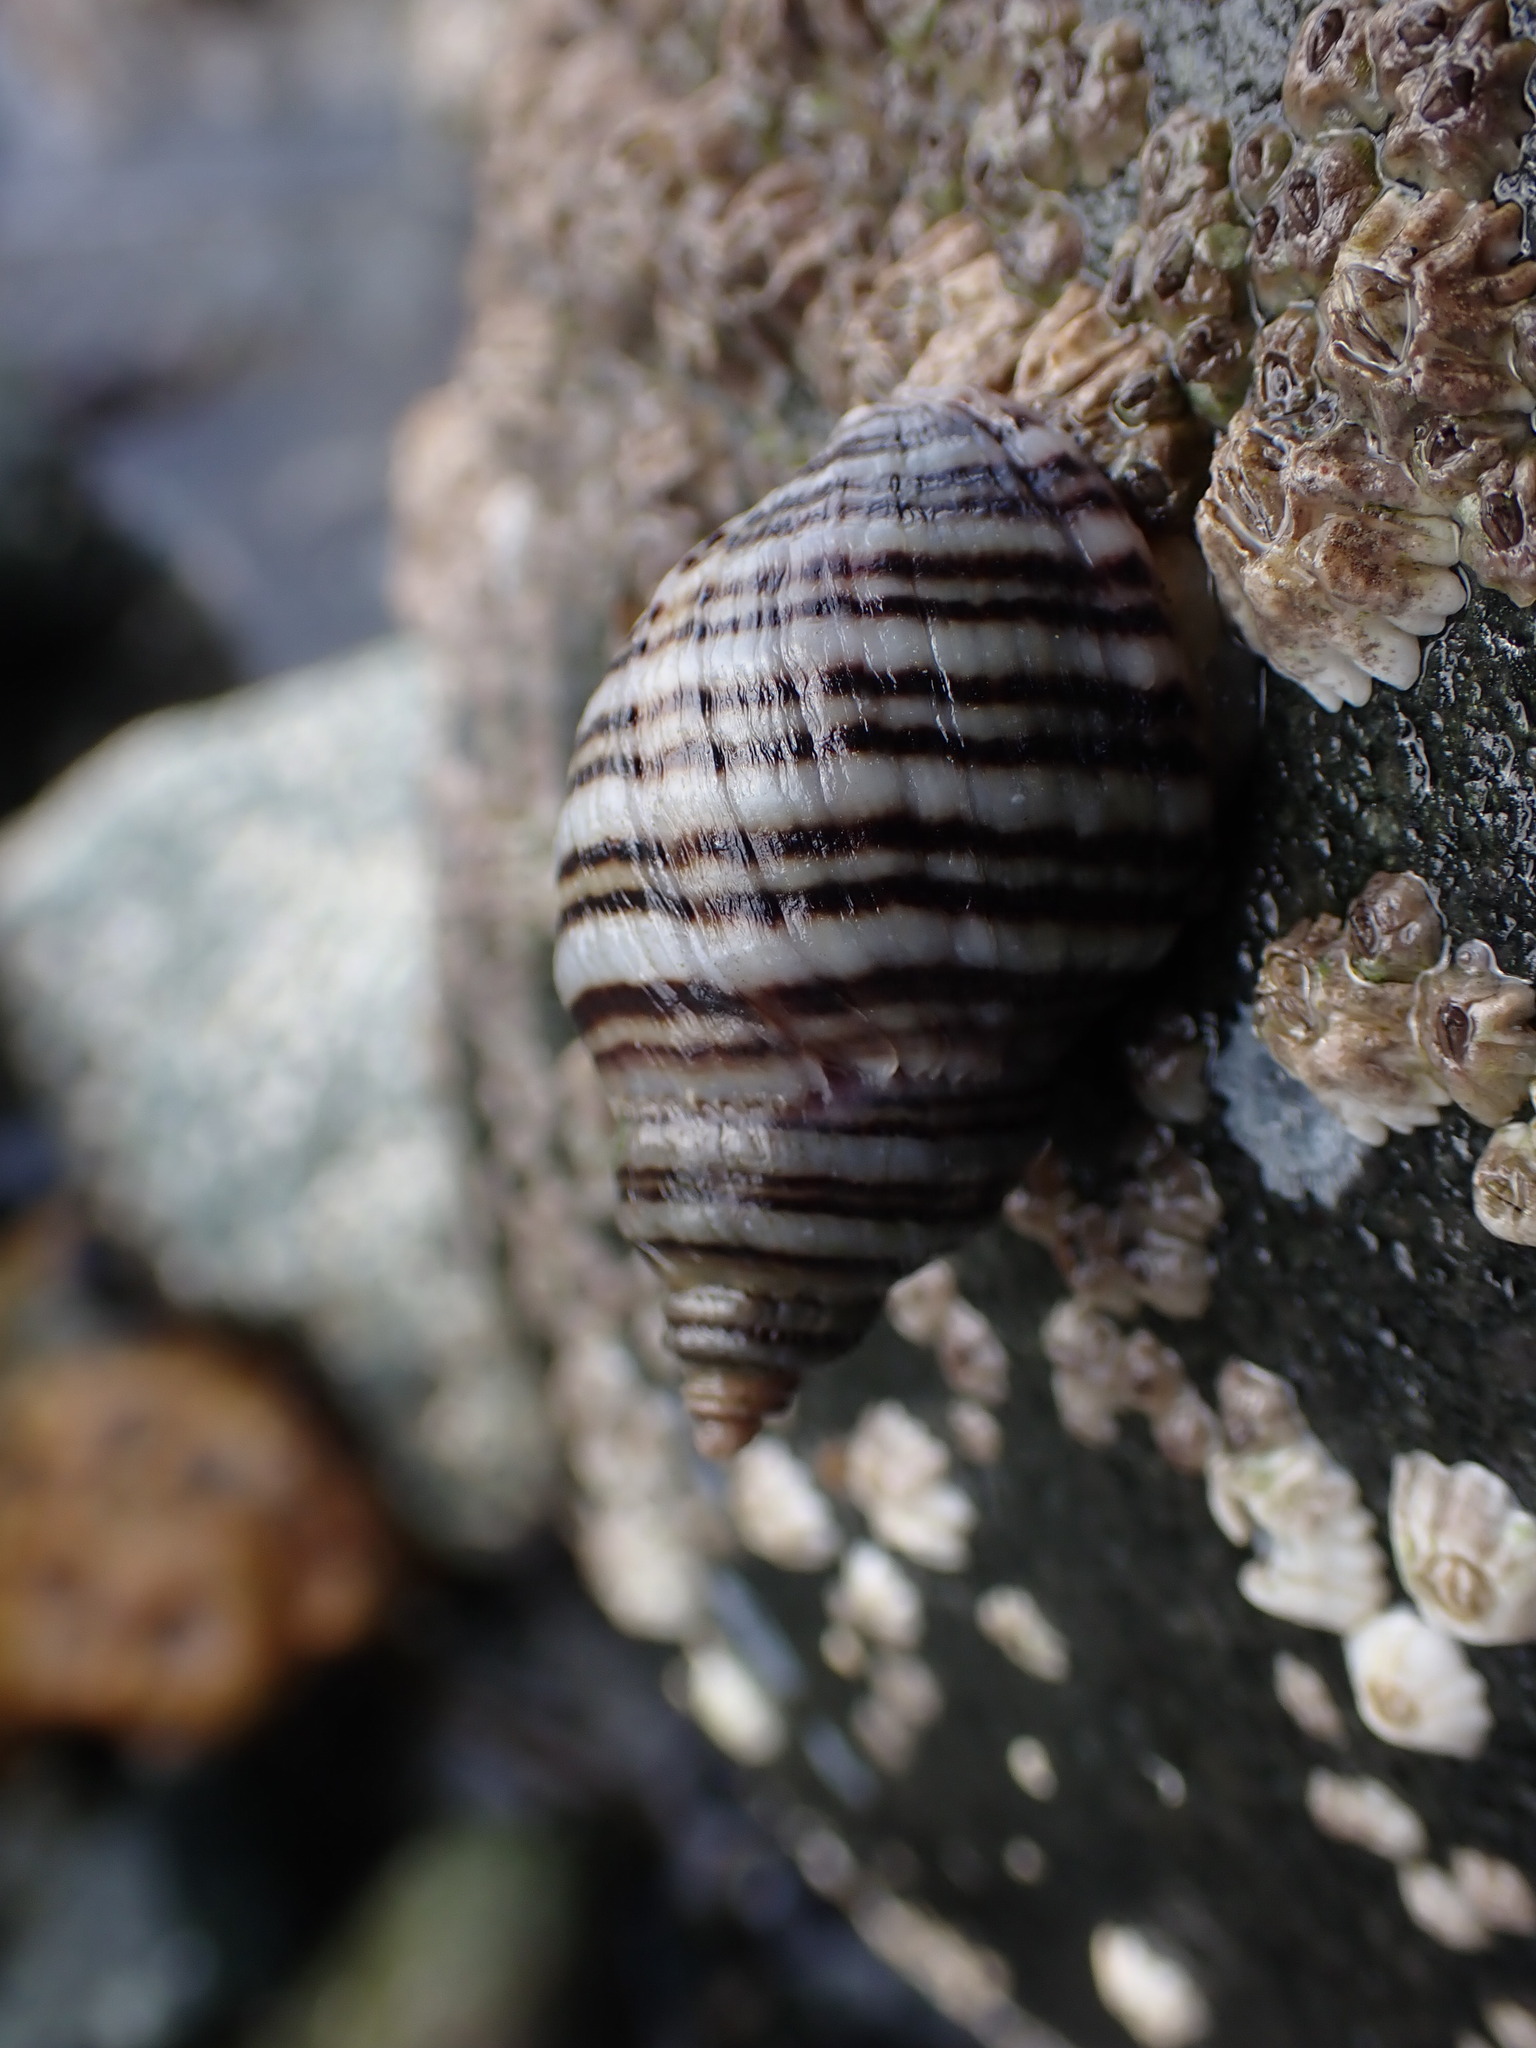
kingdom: Animalia
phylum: Mollusca
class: Gastropoda
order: Neogastropoda
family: Muricidae
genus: Nucella
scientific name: Nucella ostrina
